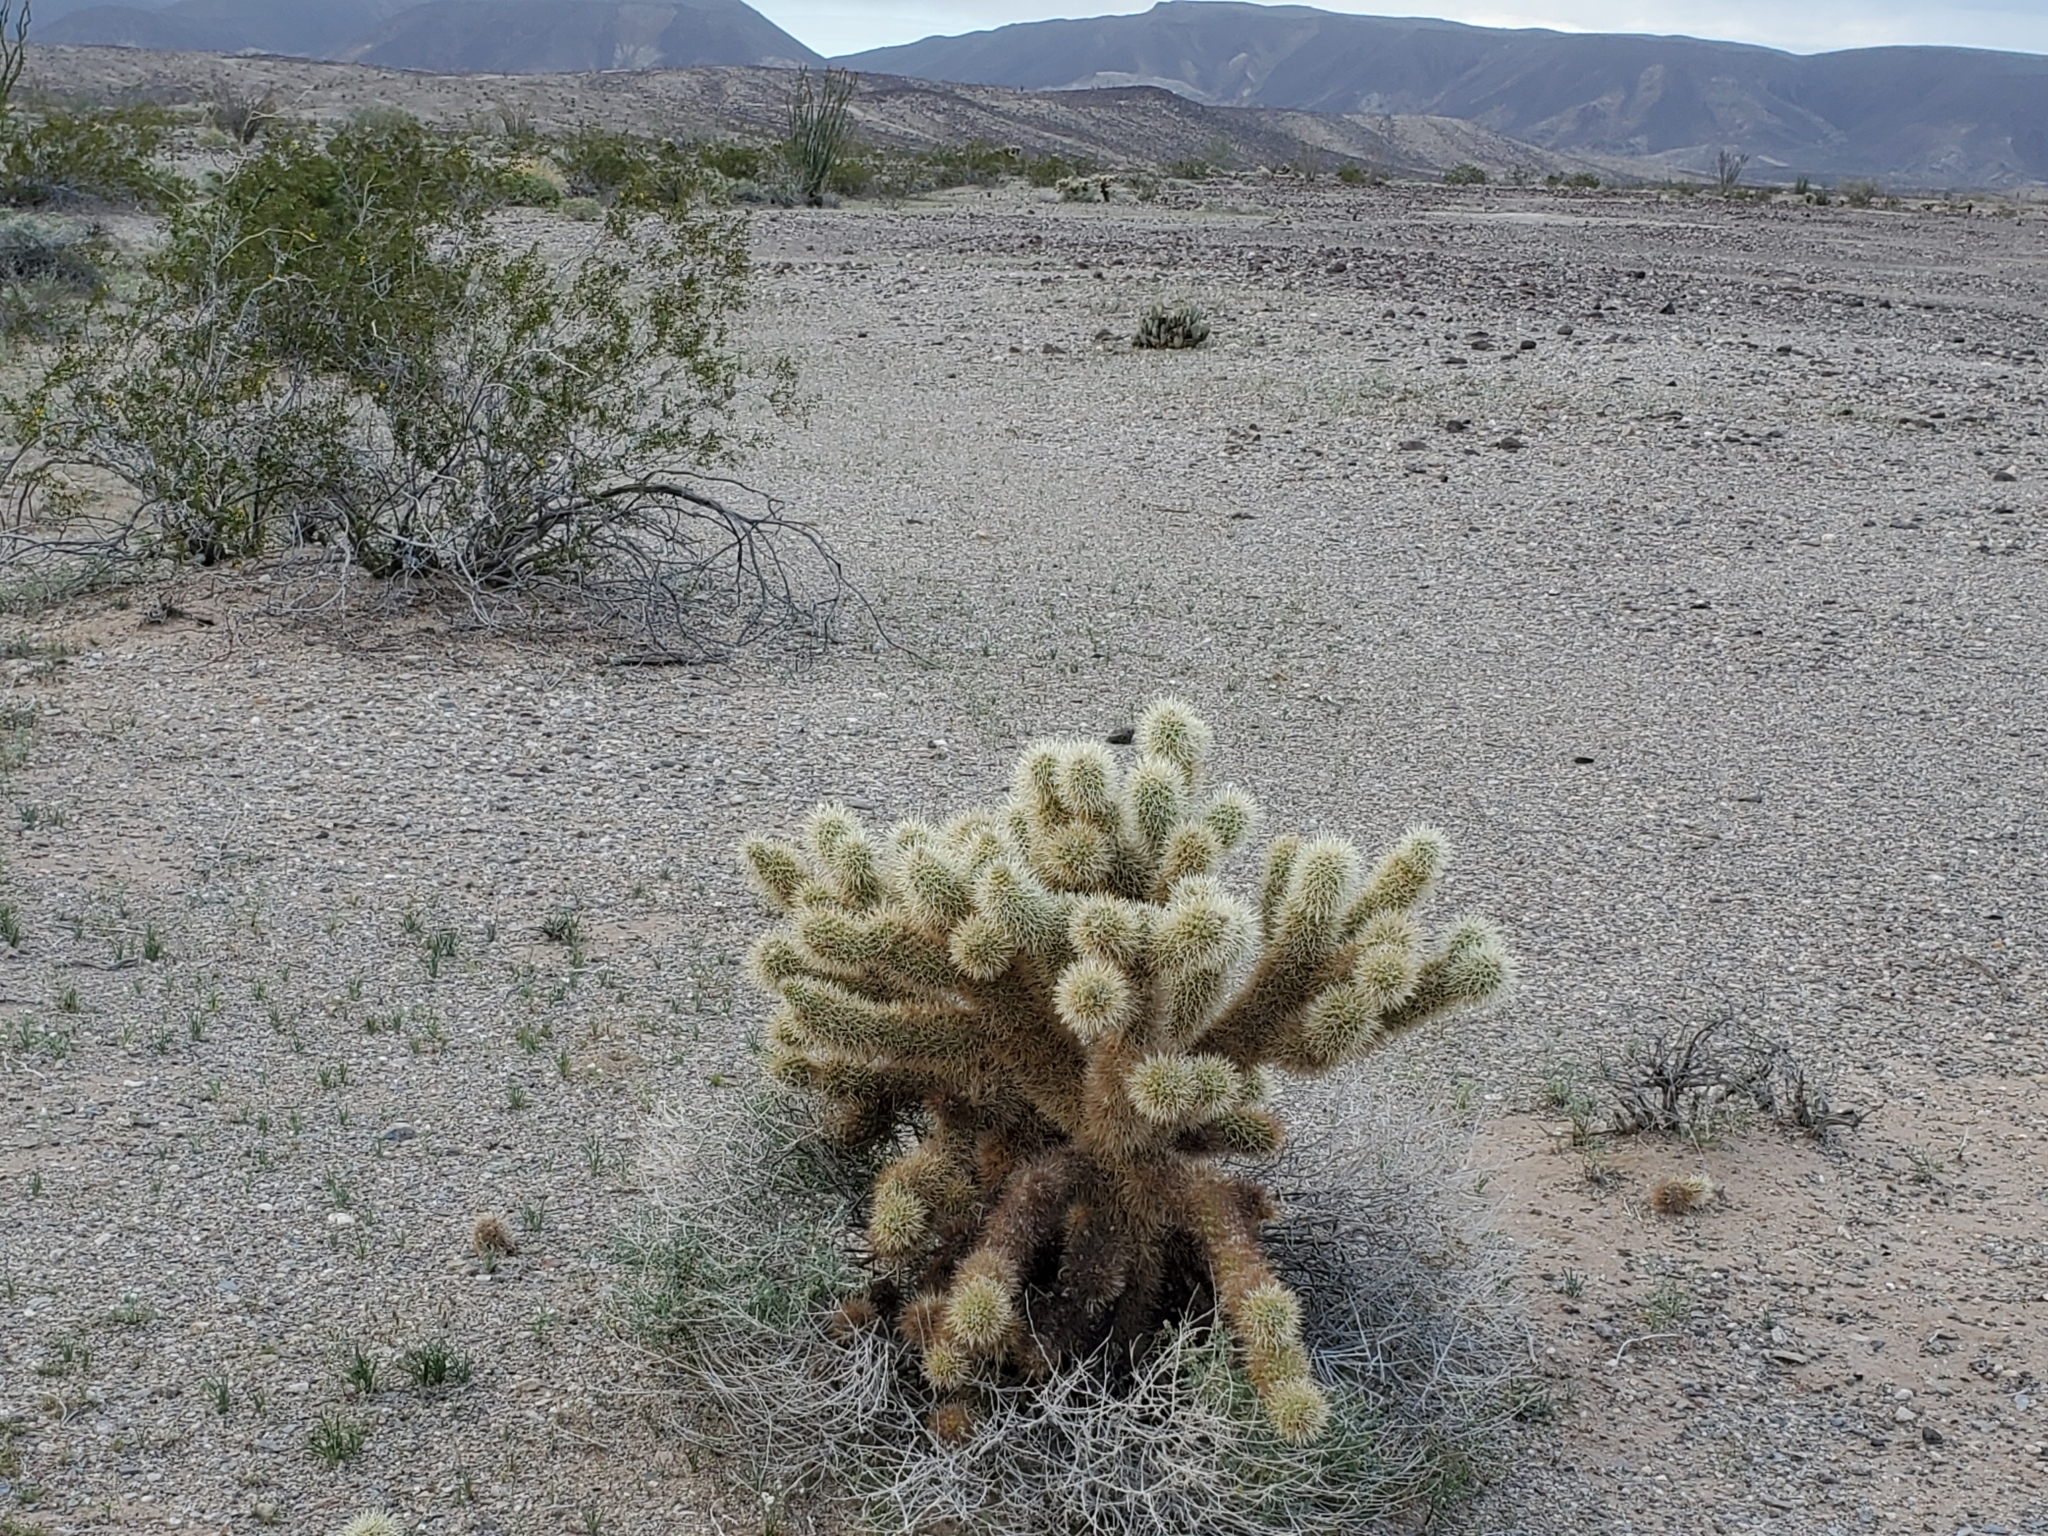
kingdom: Plantae
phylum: Tracheophyta
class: Magnoliopsida
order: Caryophyllales
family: Cactaceae
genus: Cylindropuntia
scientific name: Cylindropuntia fosbergii
